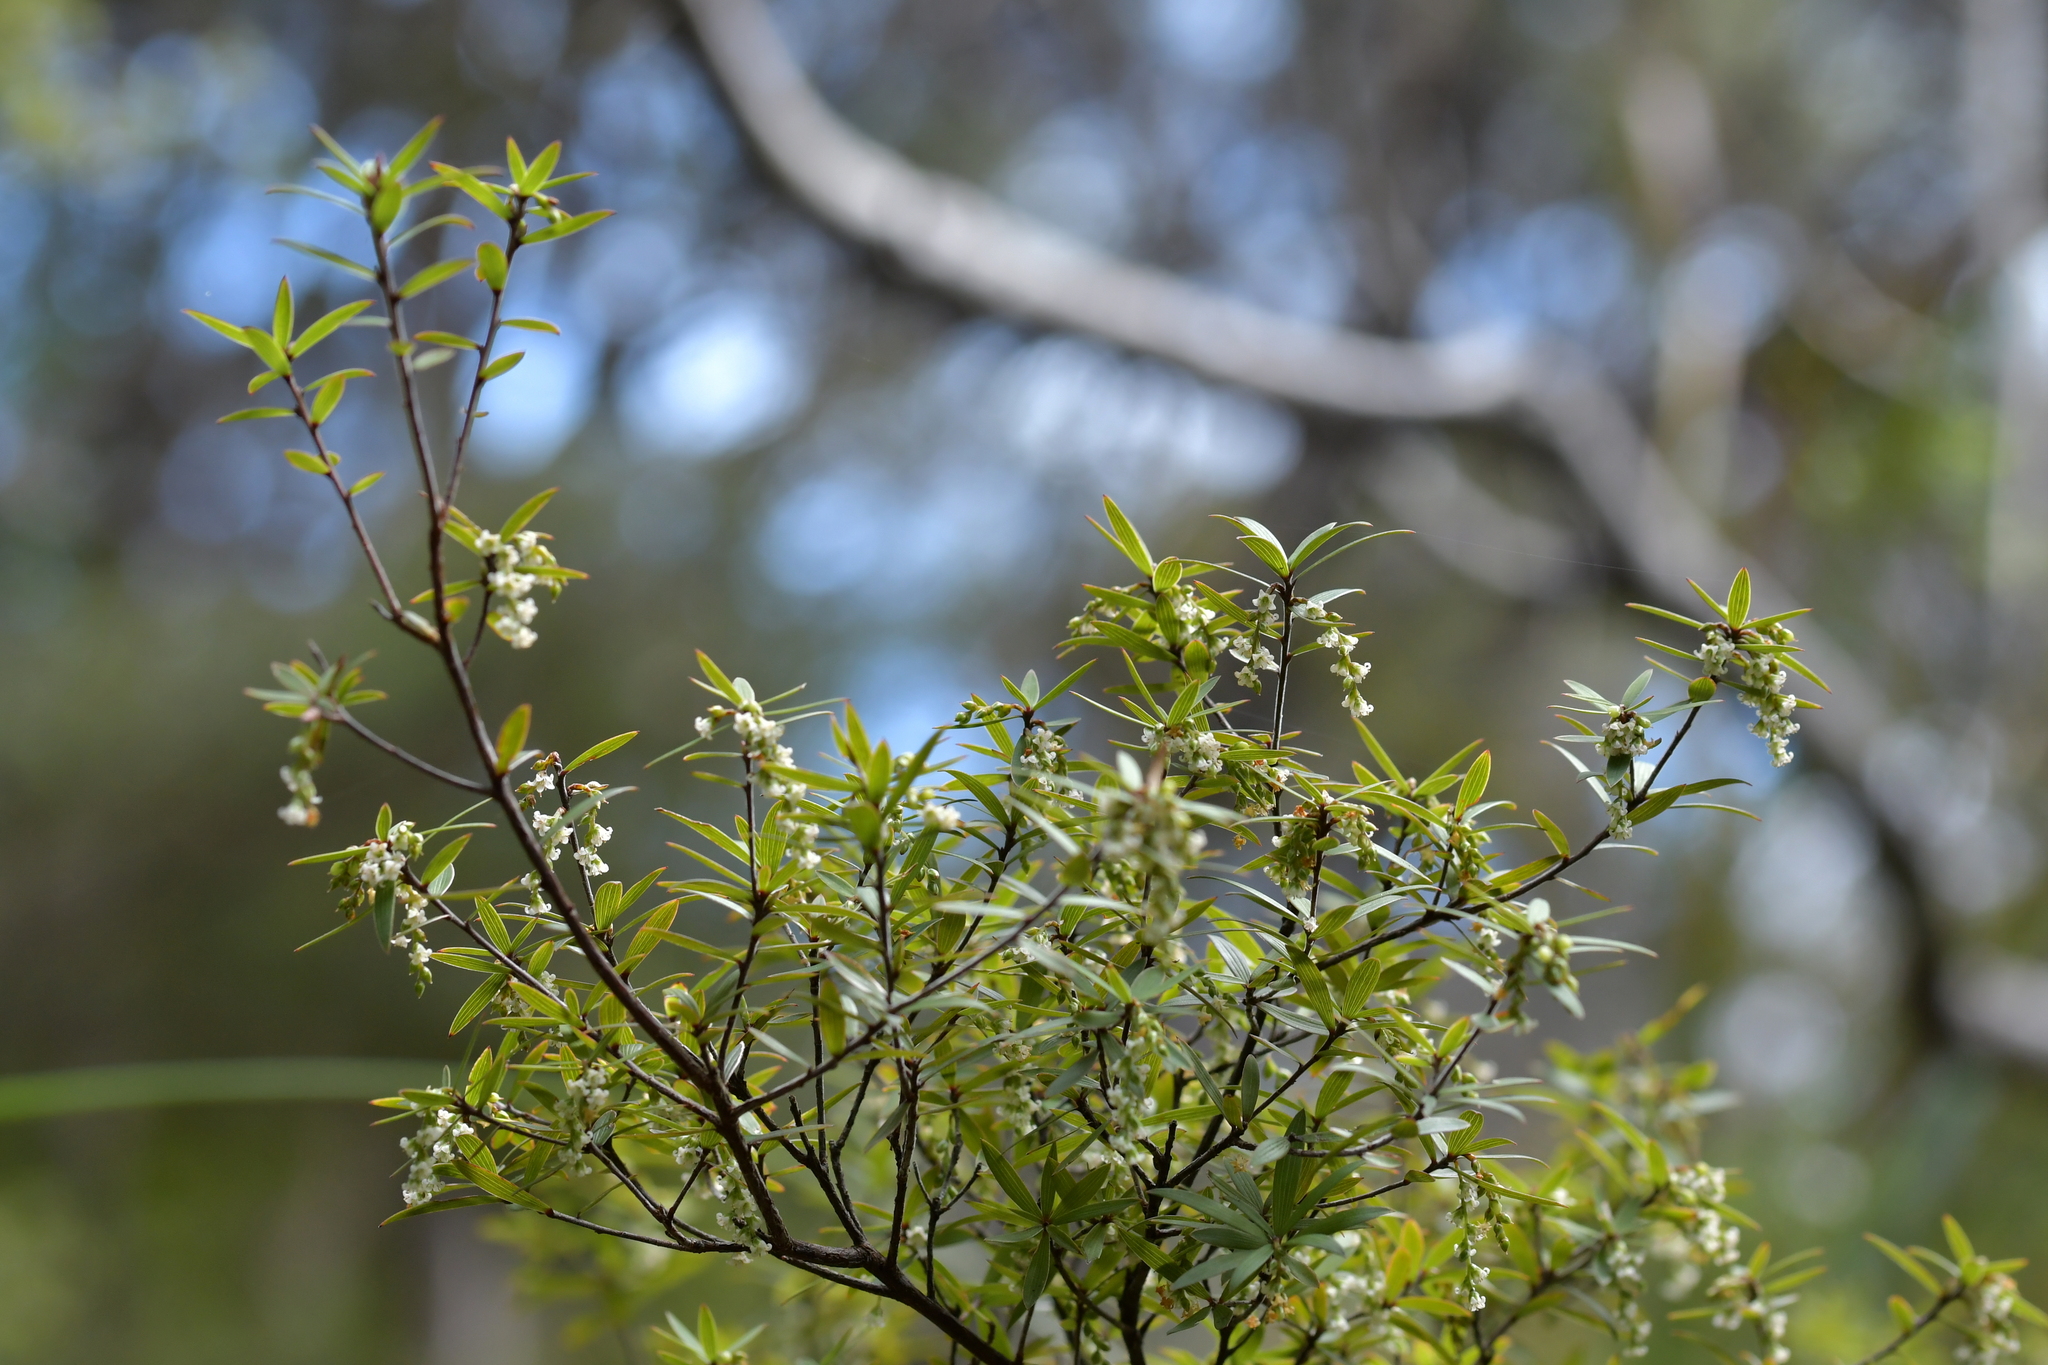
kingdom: Plantae
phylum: Tracheophyta
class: Magnoliopsida
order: Ericales
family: Ericaceae
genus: Leucopogon
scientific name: Leucopogon fasciculatus
